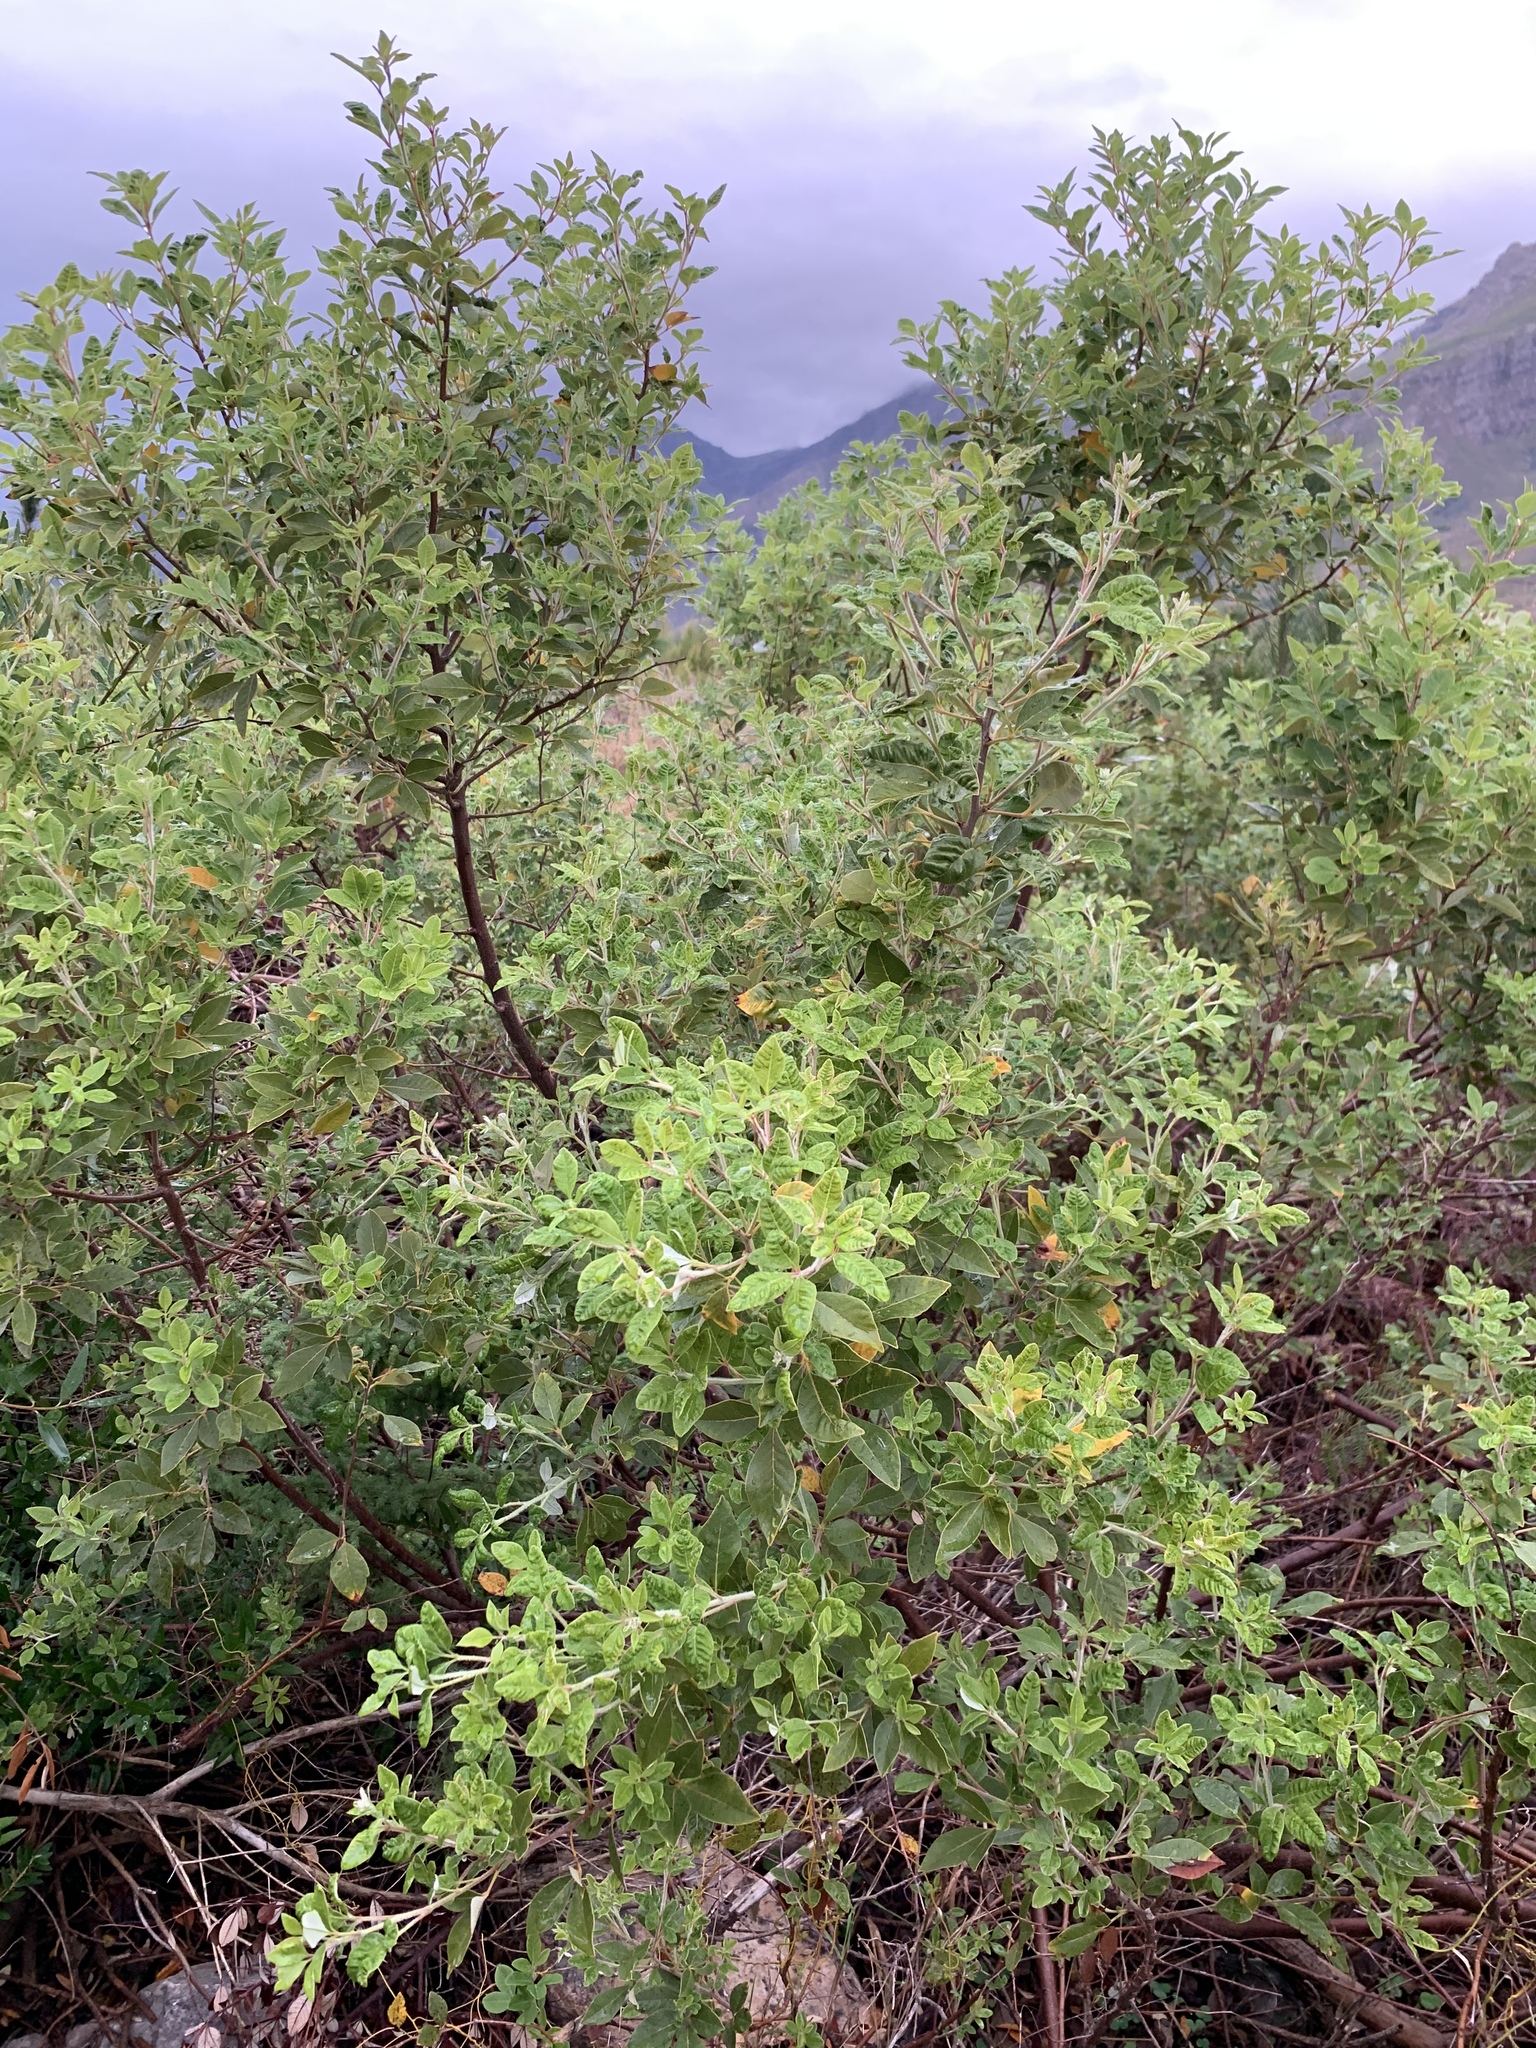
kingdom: Plantae
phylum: Tracheophyta
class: Magnoliopsida
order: Sapindales
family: Anacardiaceae
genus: Searsia
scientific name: Searsia tomentosa
